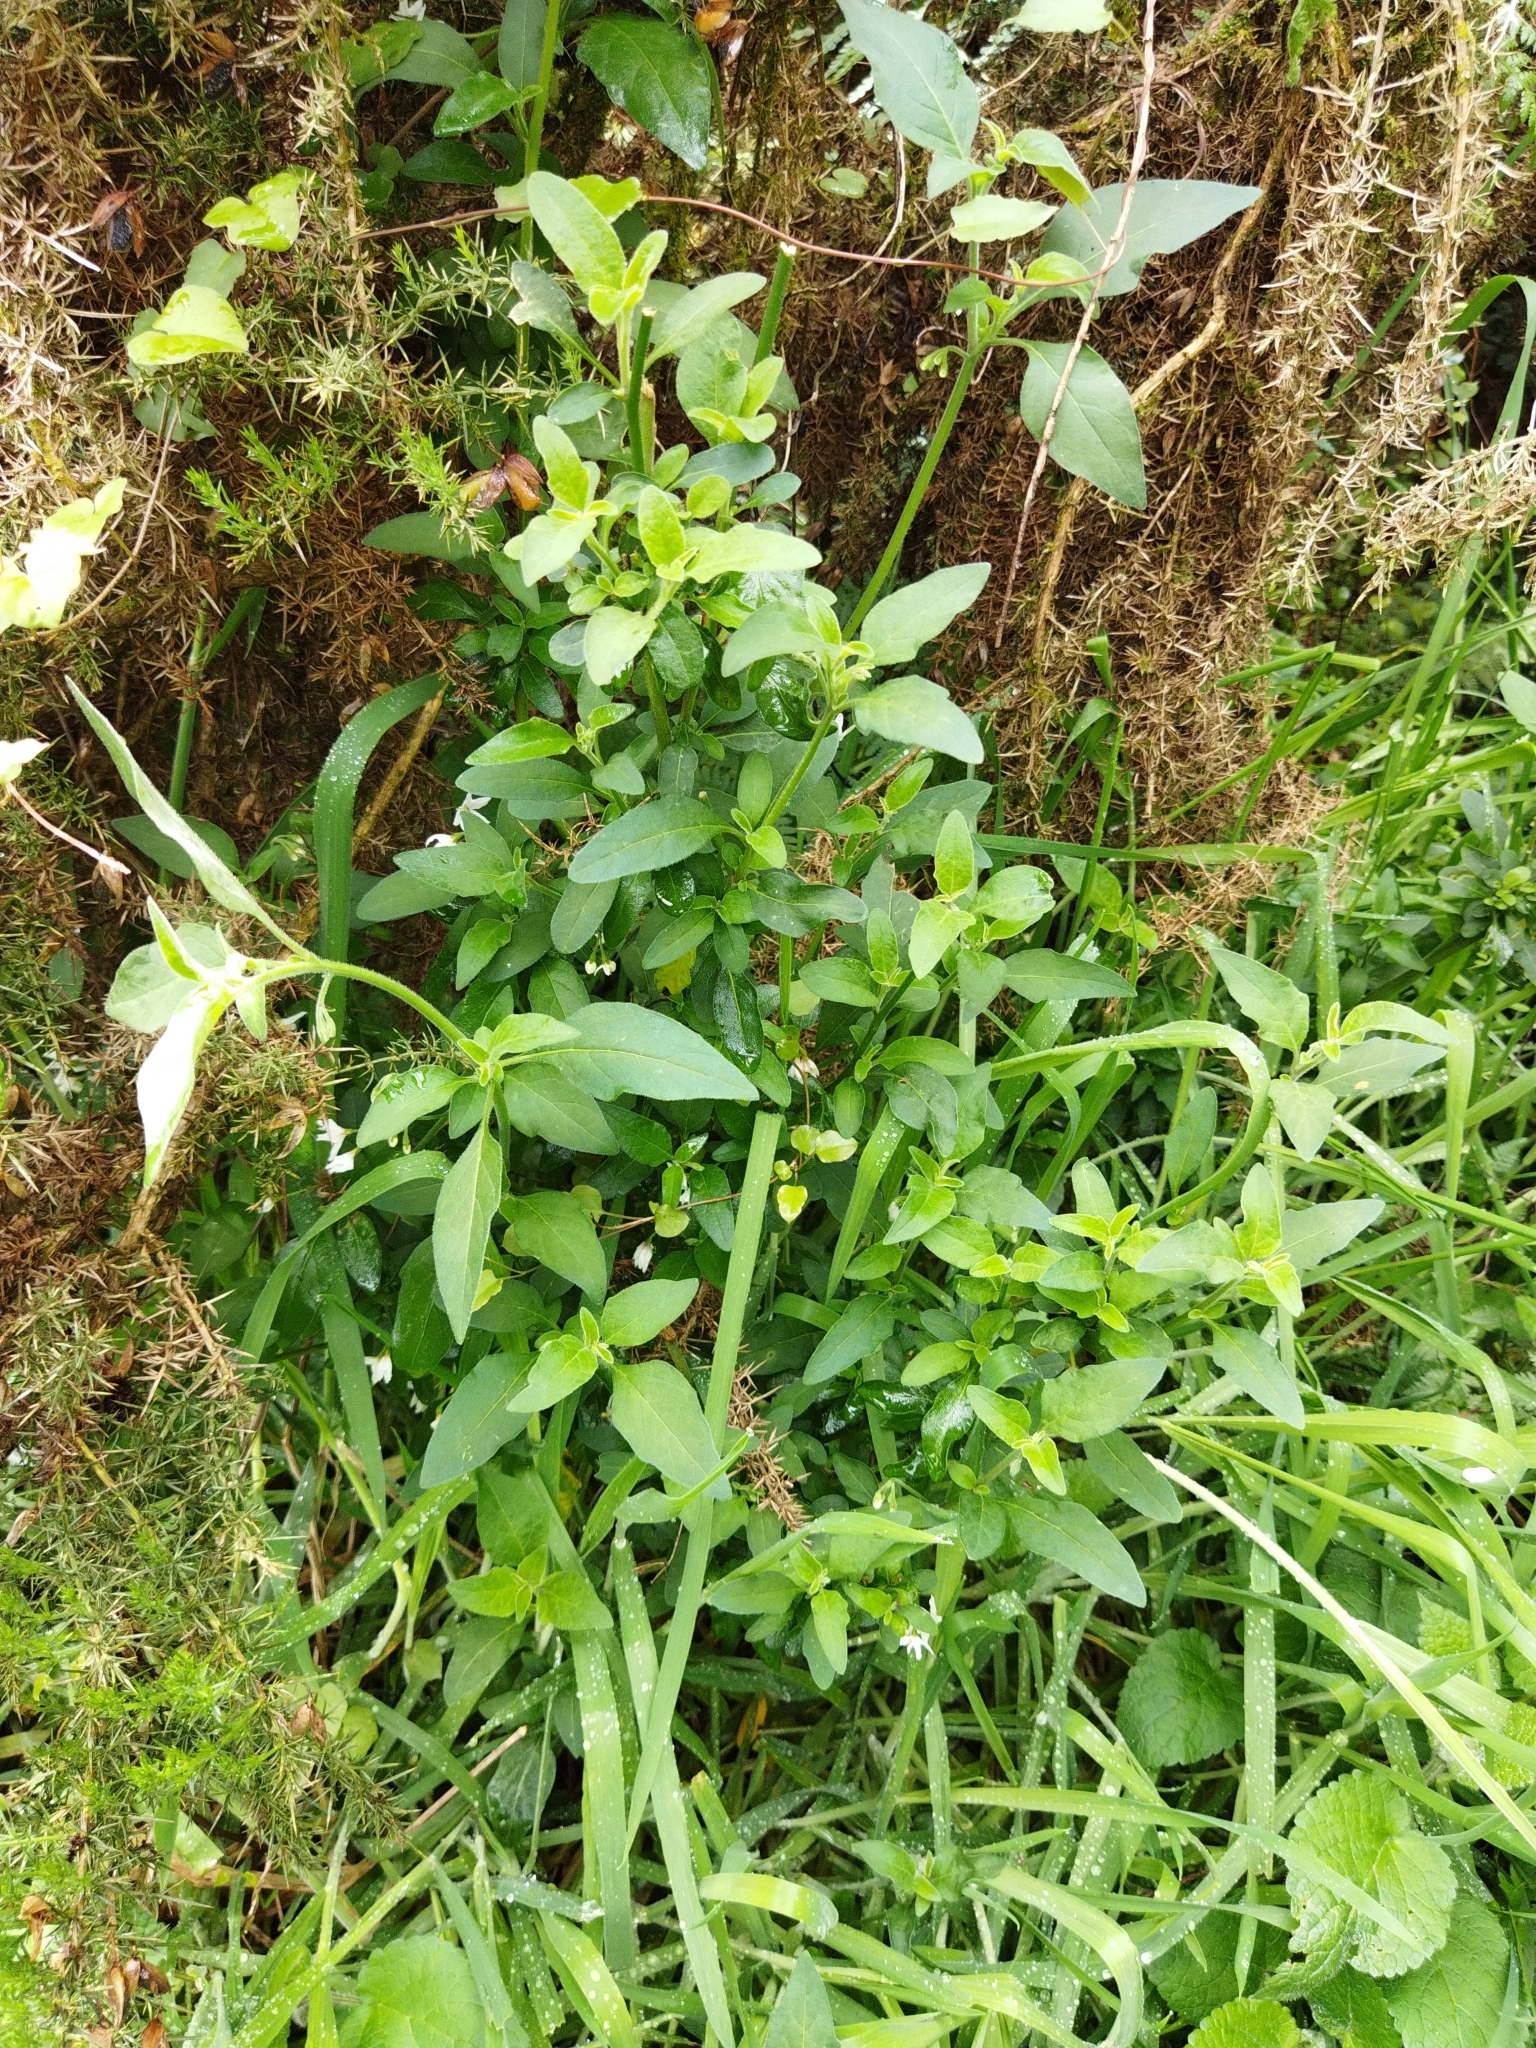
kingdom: Plantae
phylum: Tracheophyta
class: Magnoliopsida
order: Solanales
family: Solanaceae
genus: Solanum
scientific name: Solanum chenopodioides
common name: Tall nightshade
